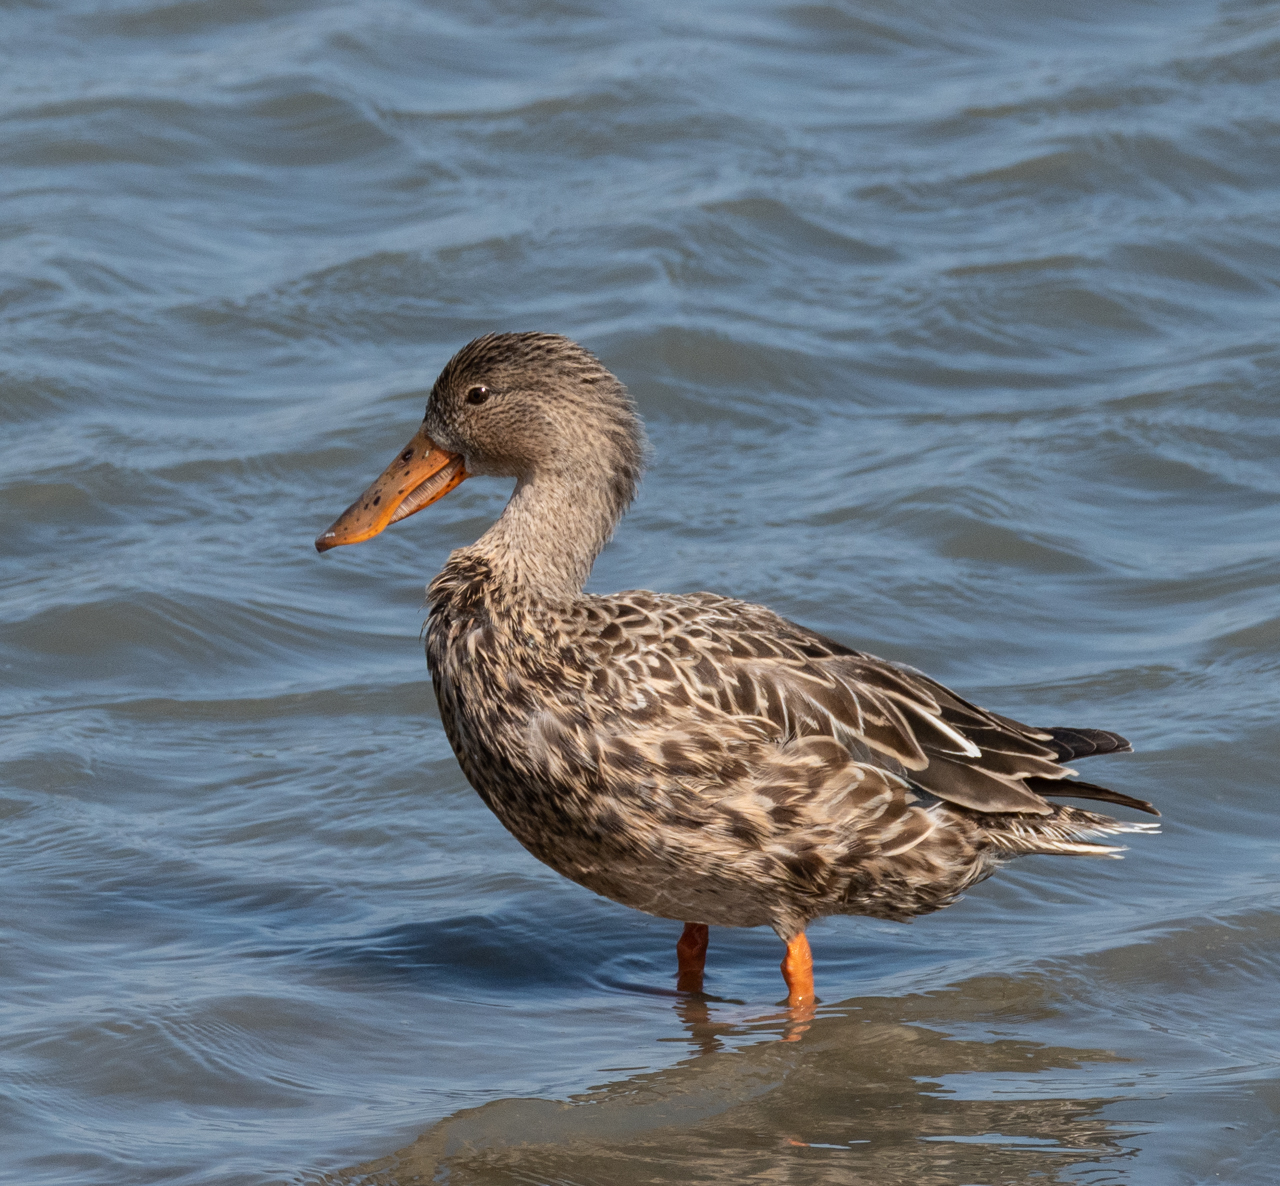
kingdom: Animalia
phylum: Chordata
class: Aves
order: Anseriformes
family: Anatidae
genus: Spatula
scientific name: Spatula clypeata
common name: Northern shoveler
